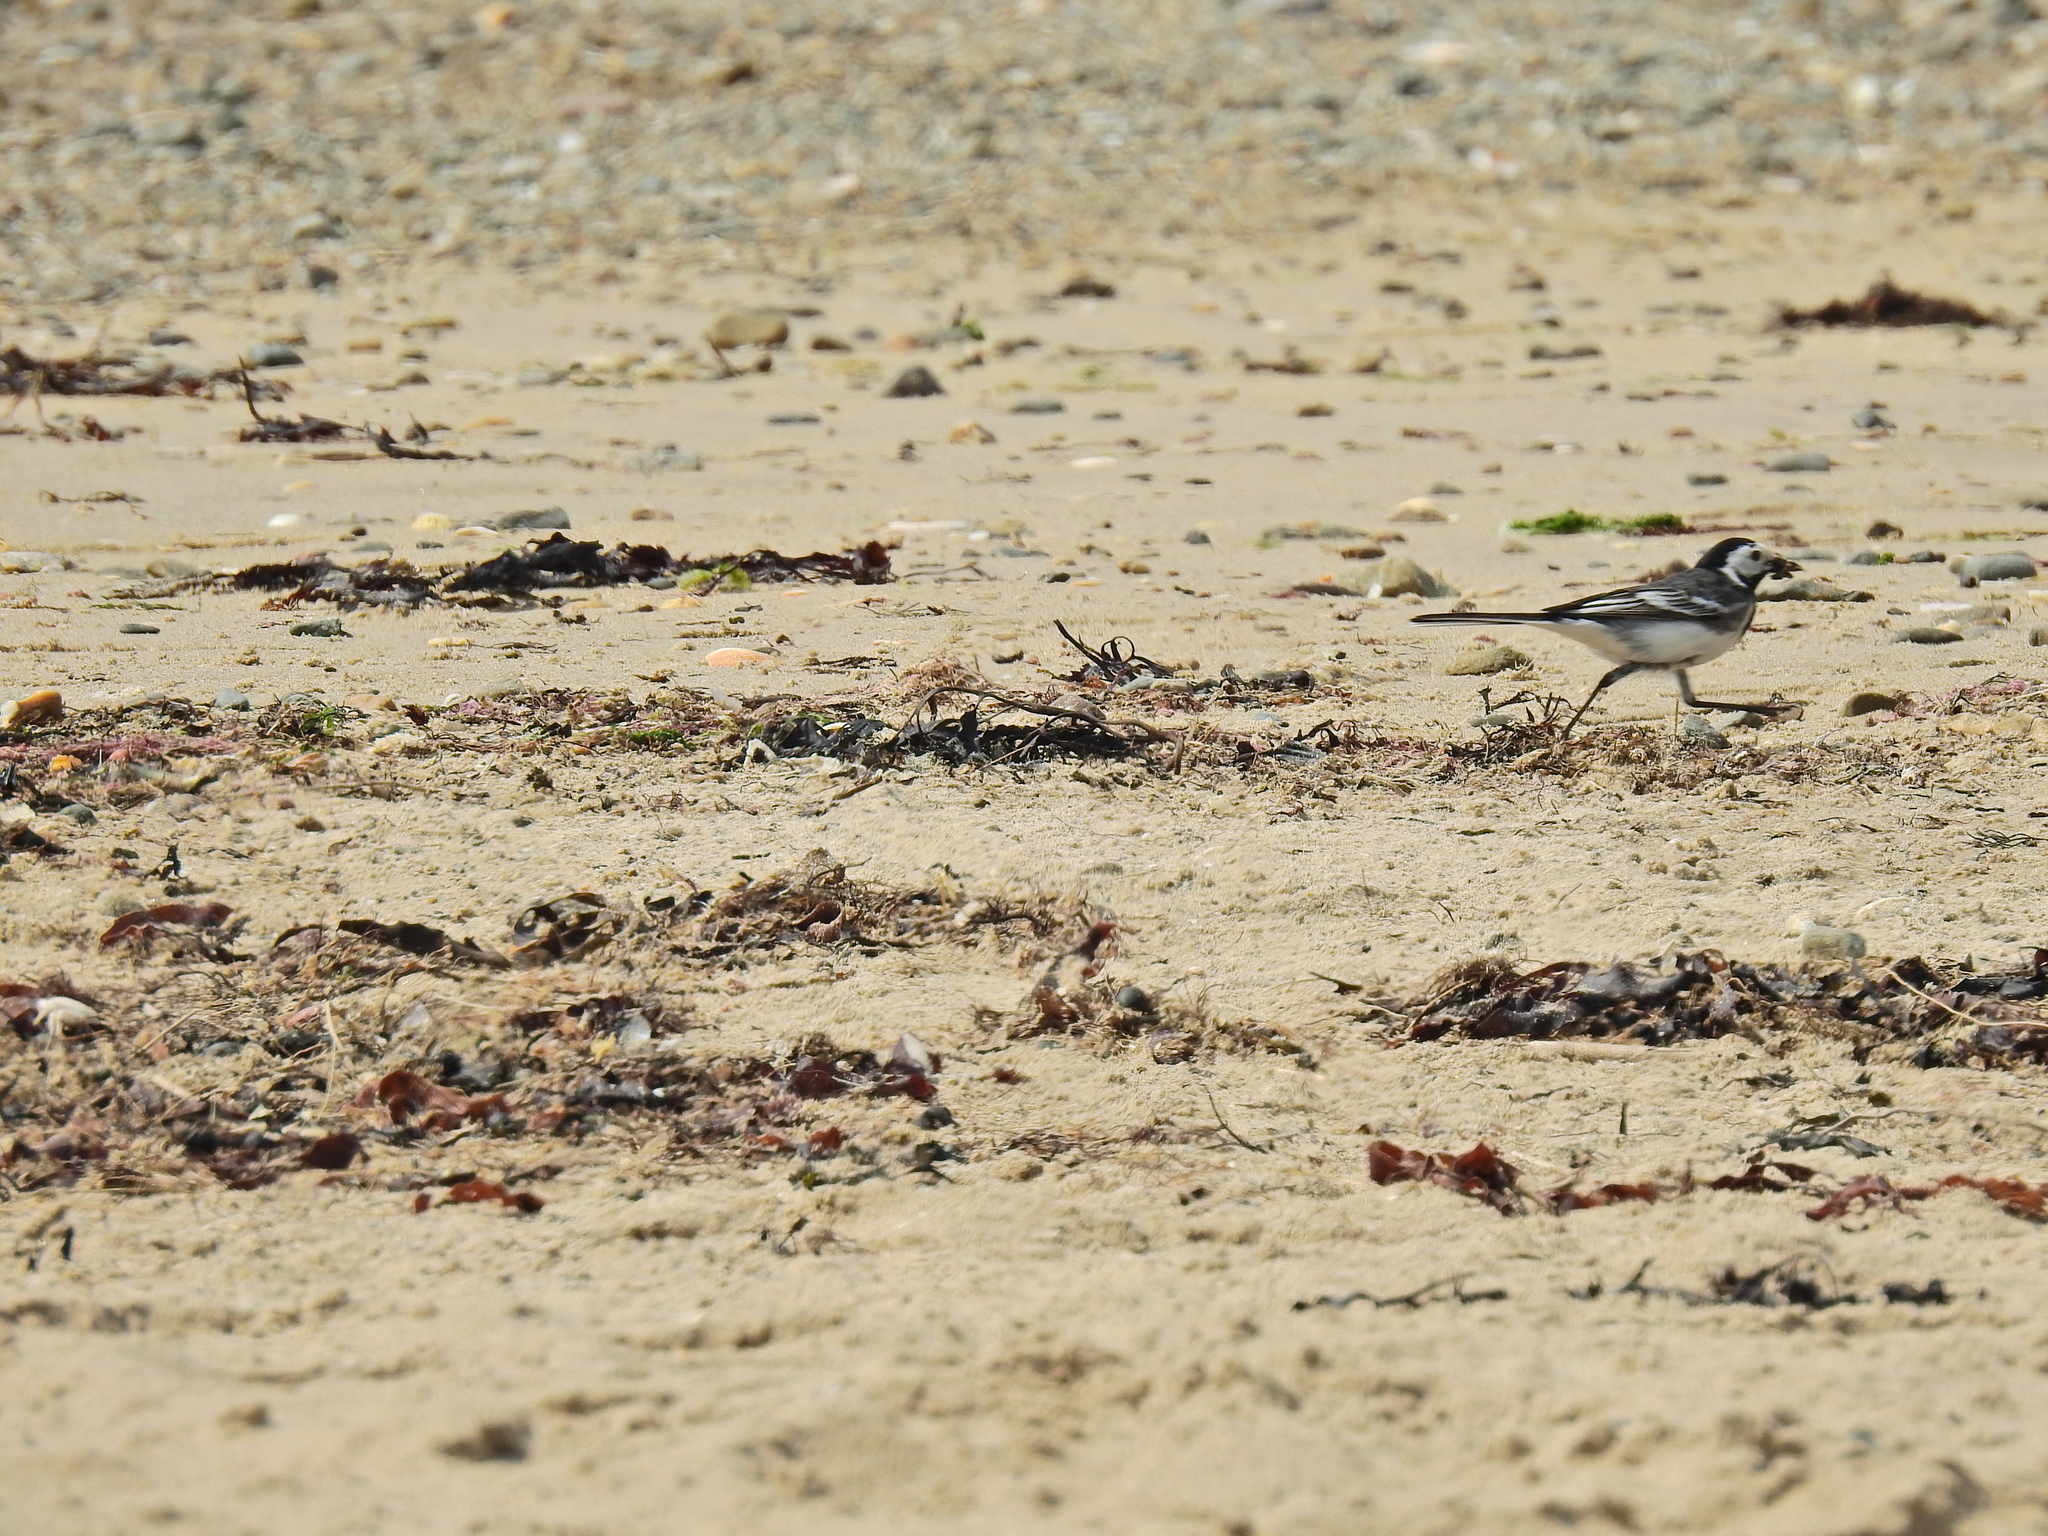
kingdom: Animalia
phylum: Chordata
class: Aves
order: Passeriformes
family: Motacillidae
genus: Motacilla
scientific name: Motacilla alba
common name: White wagtail
